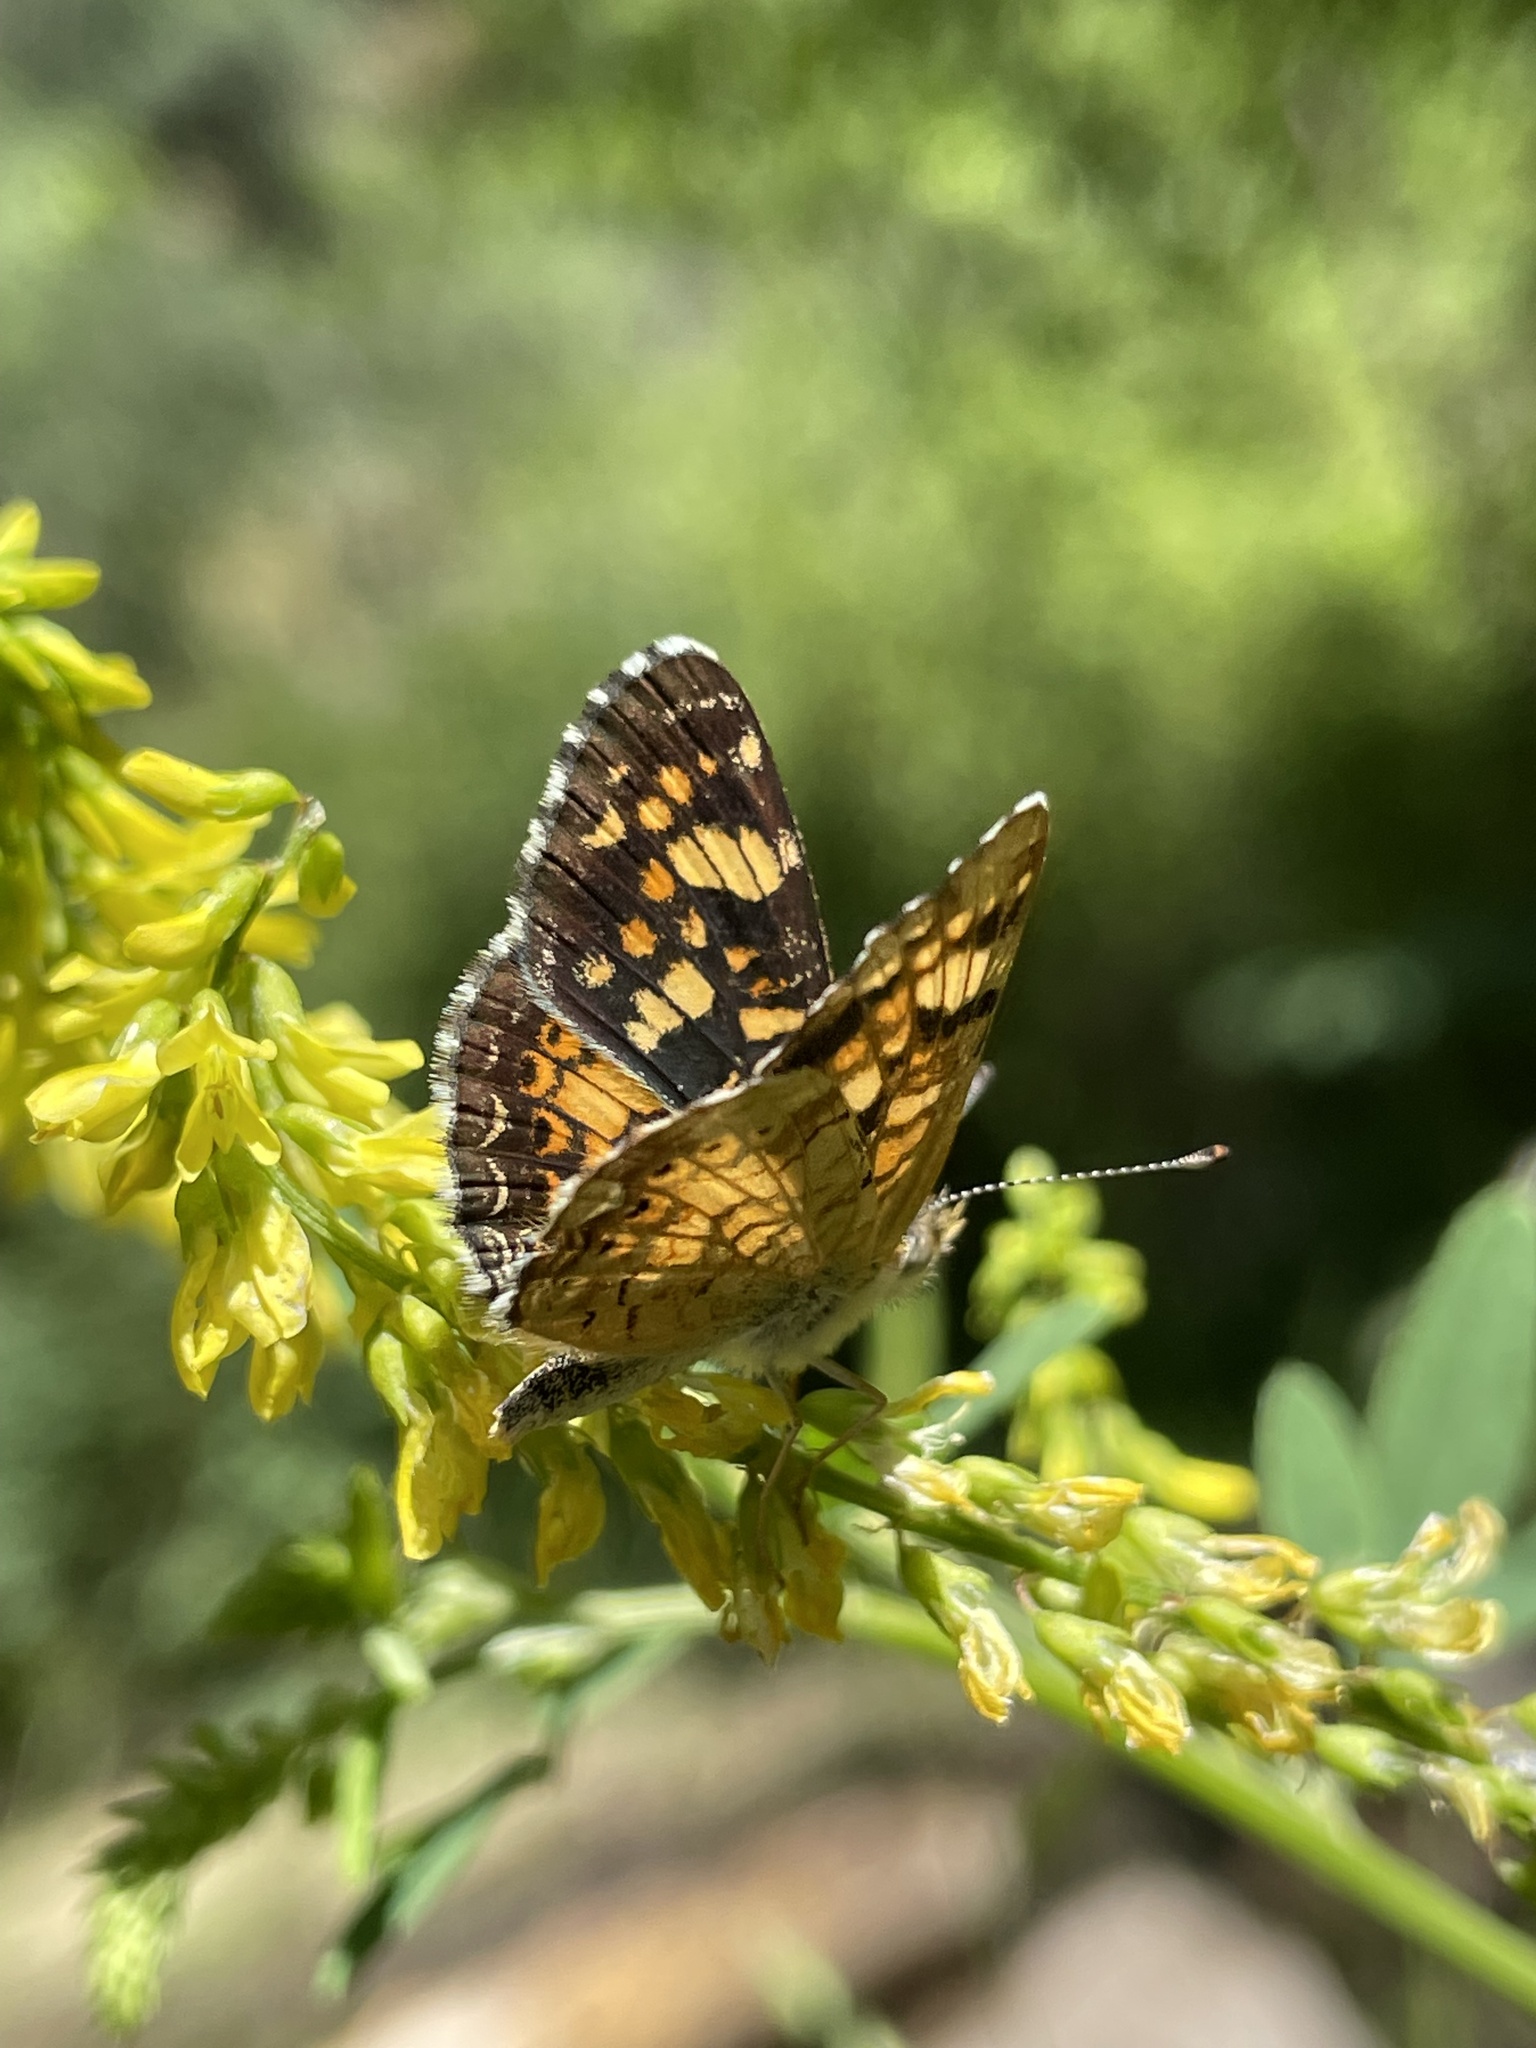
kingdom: Animalia
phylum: Arthropoda
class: Insecta
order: Lepidoptera
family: Nymphalidae
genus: Phyciodes
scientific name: Phyciodes tharos
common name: Pearl crescent
